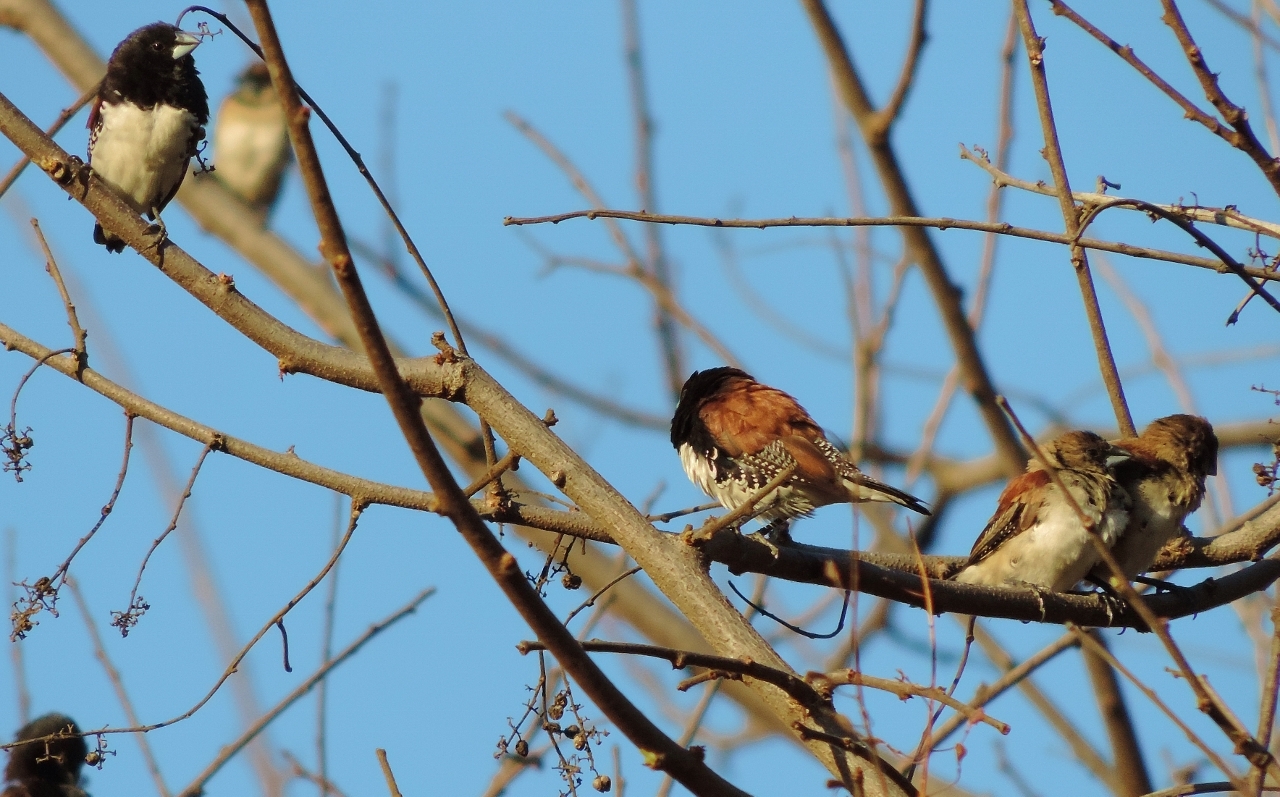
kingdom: Animalia
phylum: Chordata
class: Aves
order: Passeriformes
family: Estrildidae
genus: Lonchura
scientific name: Lonchura nigriceps
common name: Red-backed mannikin
